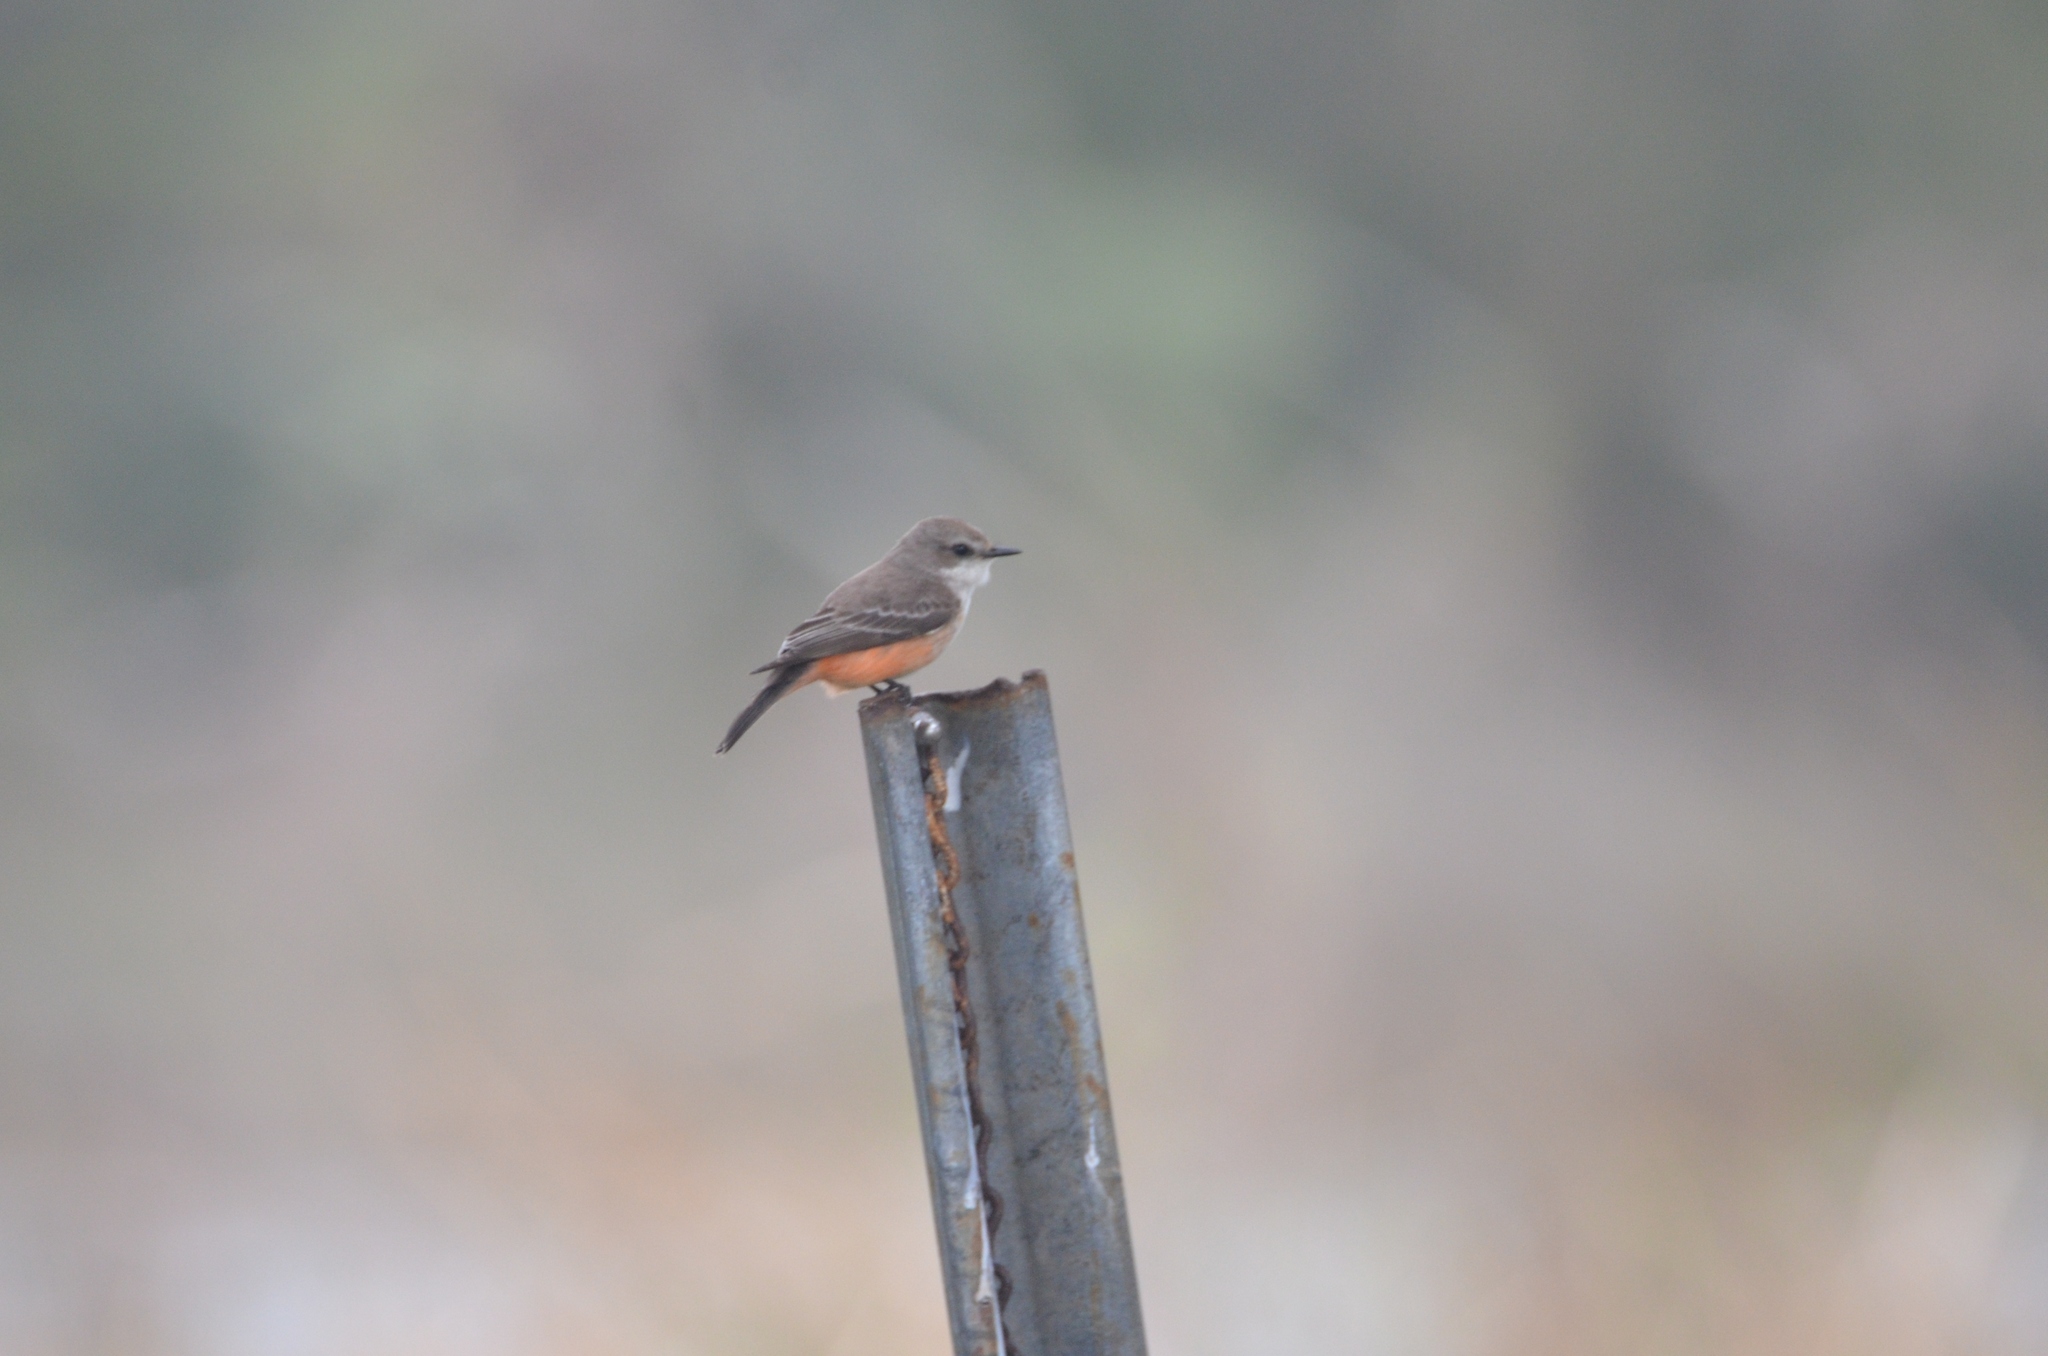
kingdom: Animalia
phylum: Chordata
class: Aves
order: Passeriformes
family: Tyrannidae
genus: Pyrocephalus
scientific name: Pyrocephalus rubinus
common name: Vermilion flycatcher
